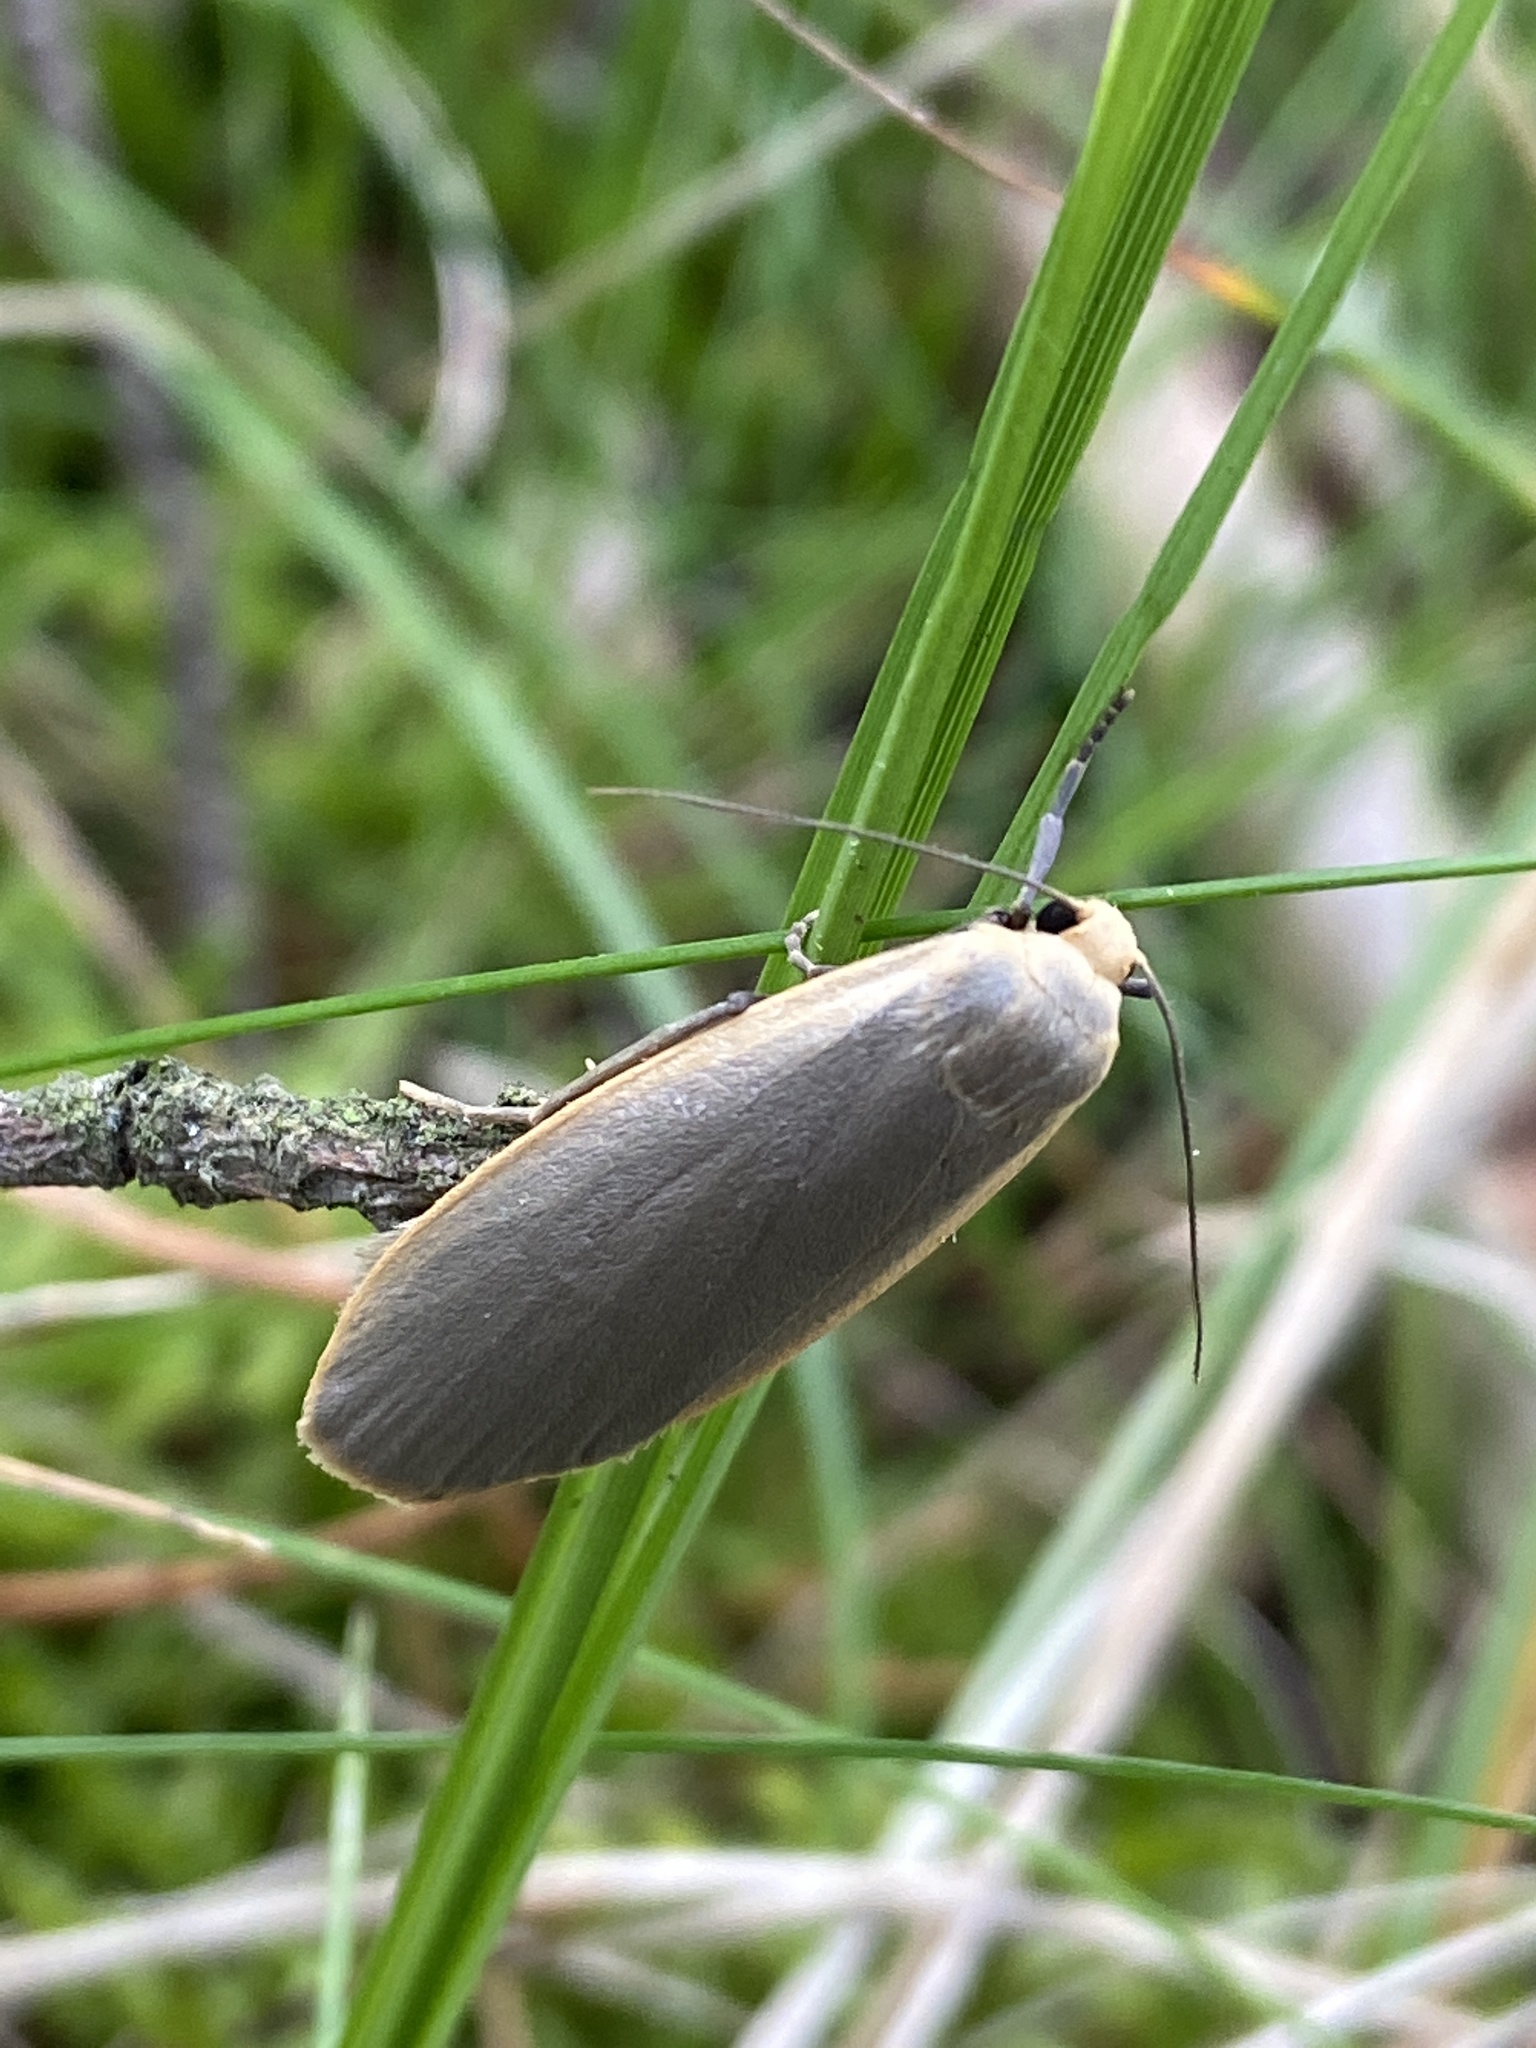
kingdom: Animalia
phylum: Arthropoda
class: Insecta
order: Lepidoptera
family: Erebidae
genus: Collita
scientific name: Collita griseola
